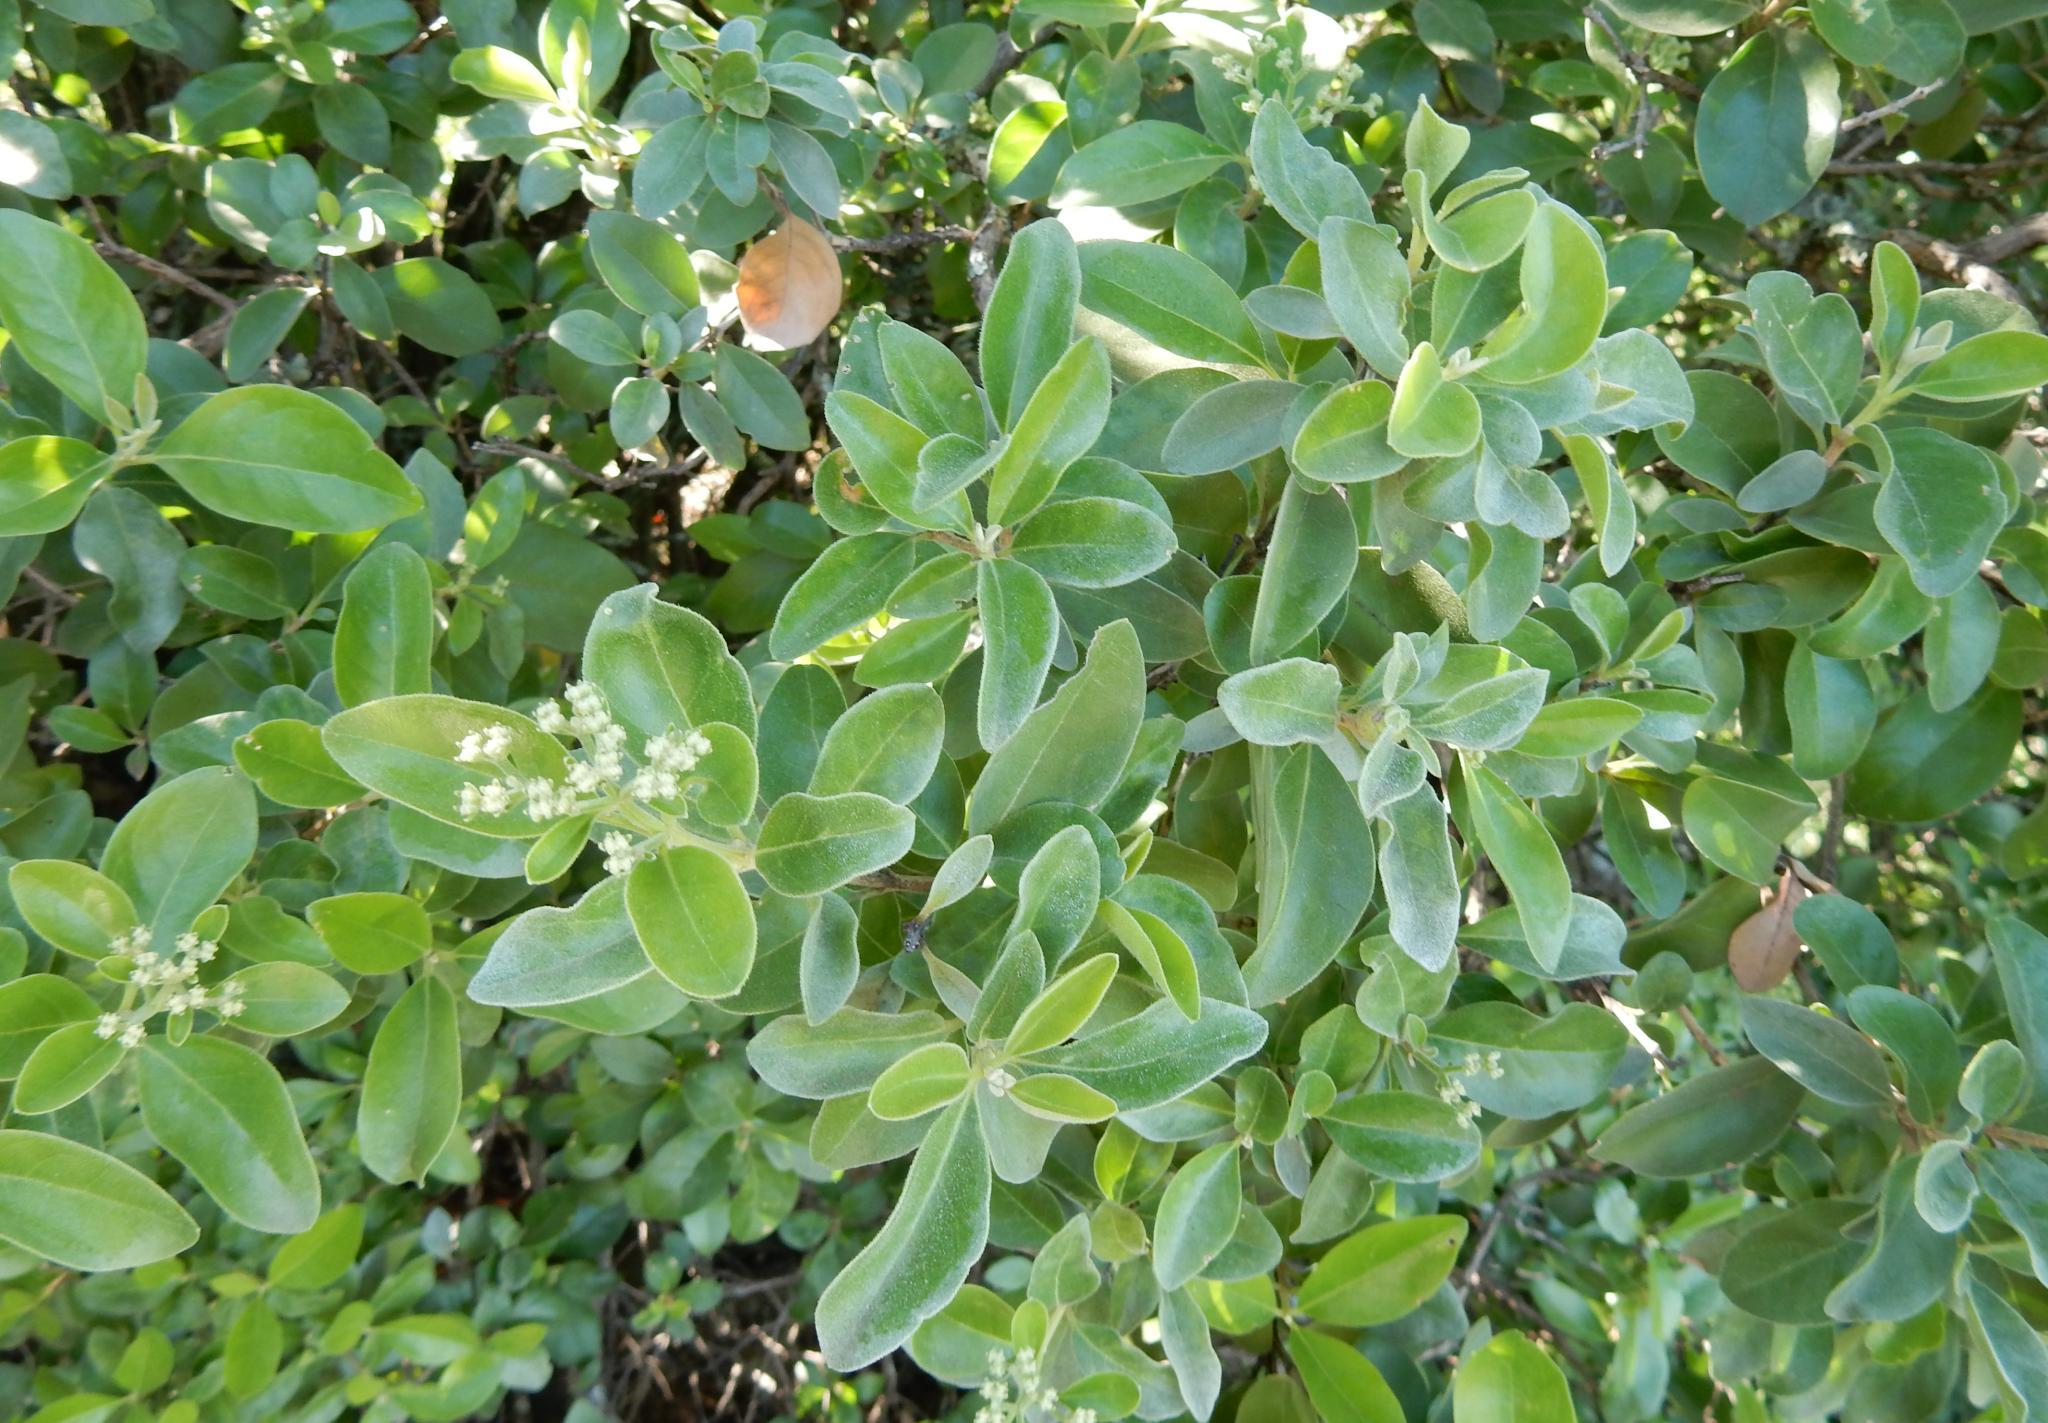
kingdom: Plantae
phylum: Tracheophyta
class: Magnoliopsida
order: Lamiales
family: Stilbaceae
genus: Nuxia
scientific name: Nuxia congesta
